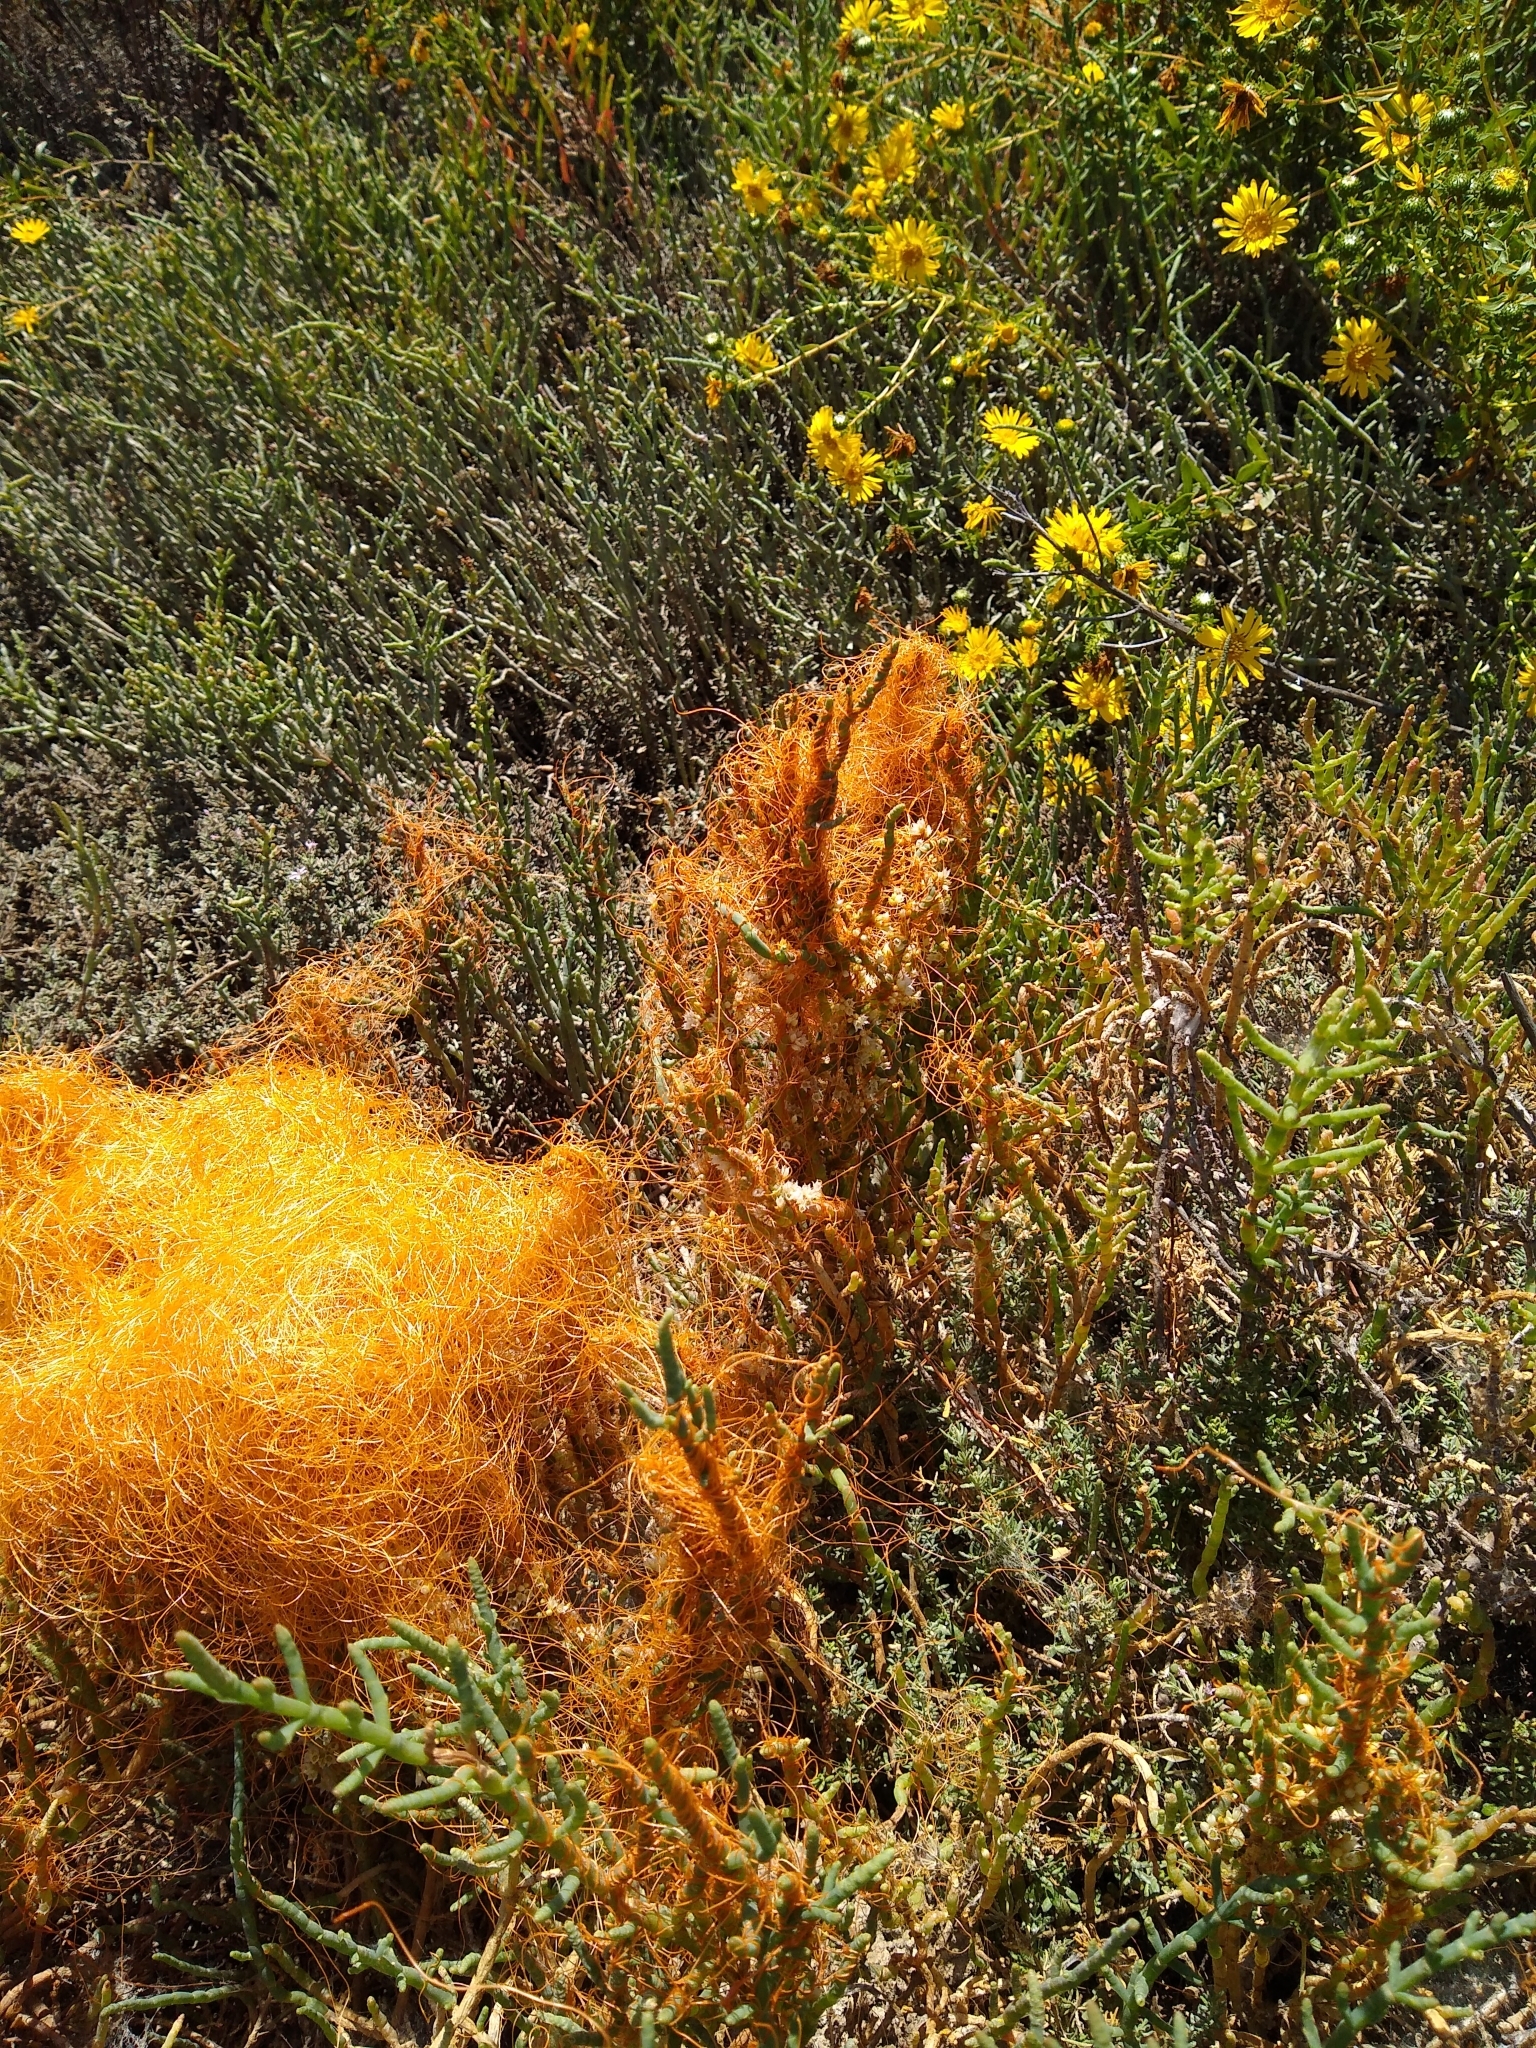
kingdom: Plantae
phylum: Tracheophyta
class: Magnoliopsida
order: Solanales
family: Convolvulaceae
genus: Cuscuta
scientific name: Cuscuta pacifica
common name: Large saltmarsh dodder
